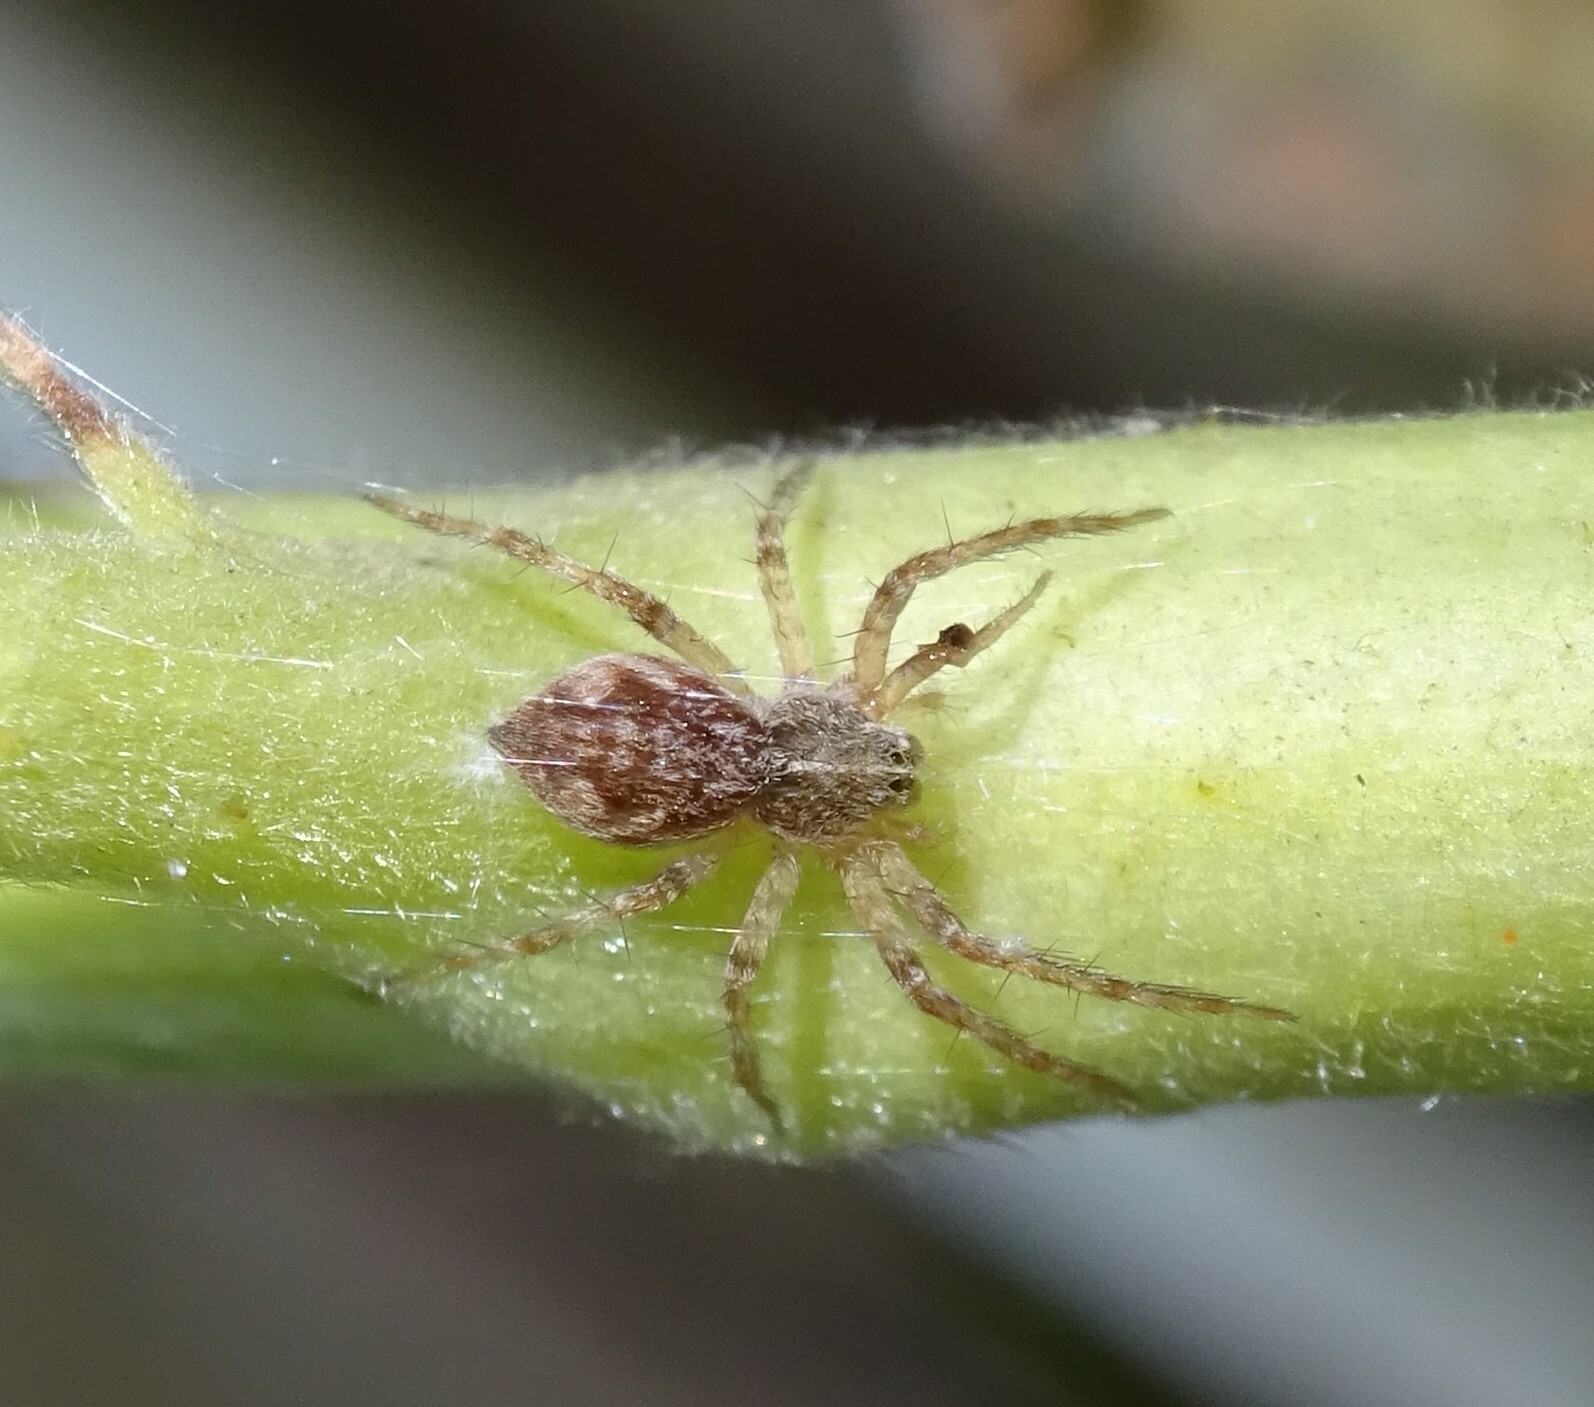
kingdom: Animalia
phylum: Arthropoda
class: Arachnida
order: Araneae
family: Pisauridae
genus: Pisaura
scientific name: Pisaura
